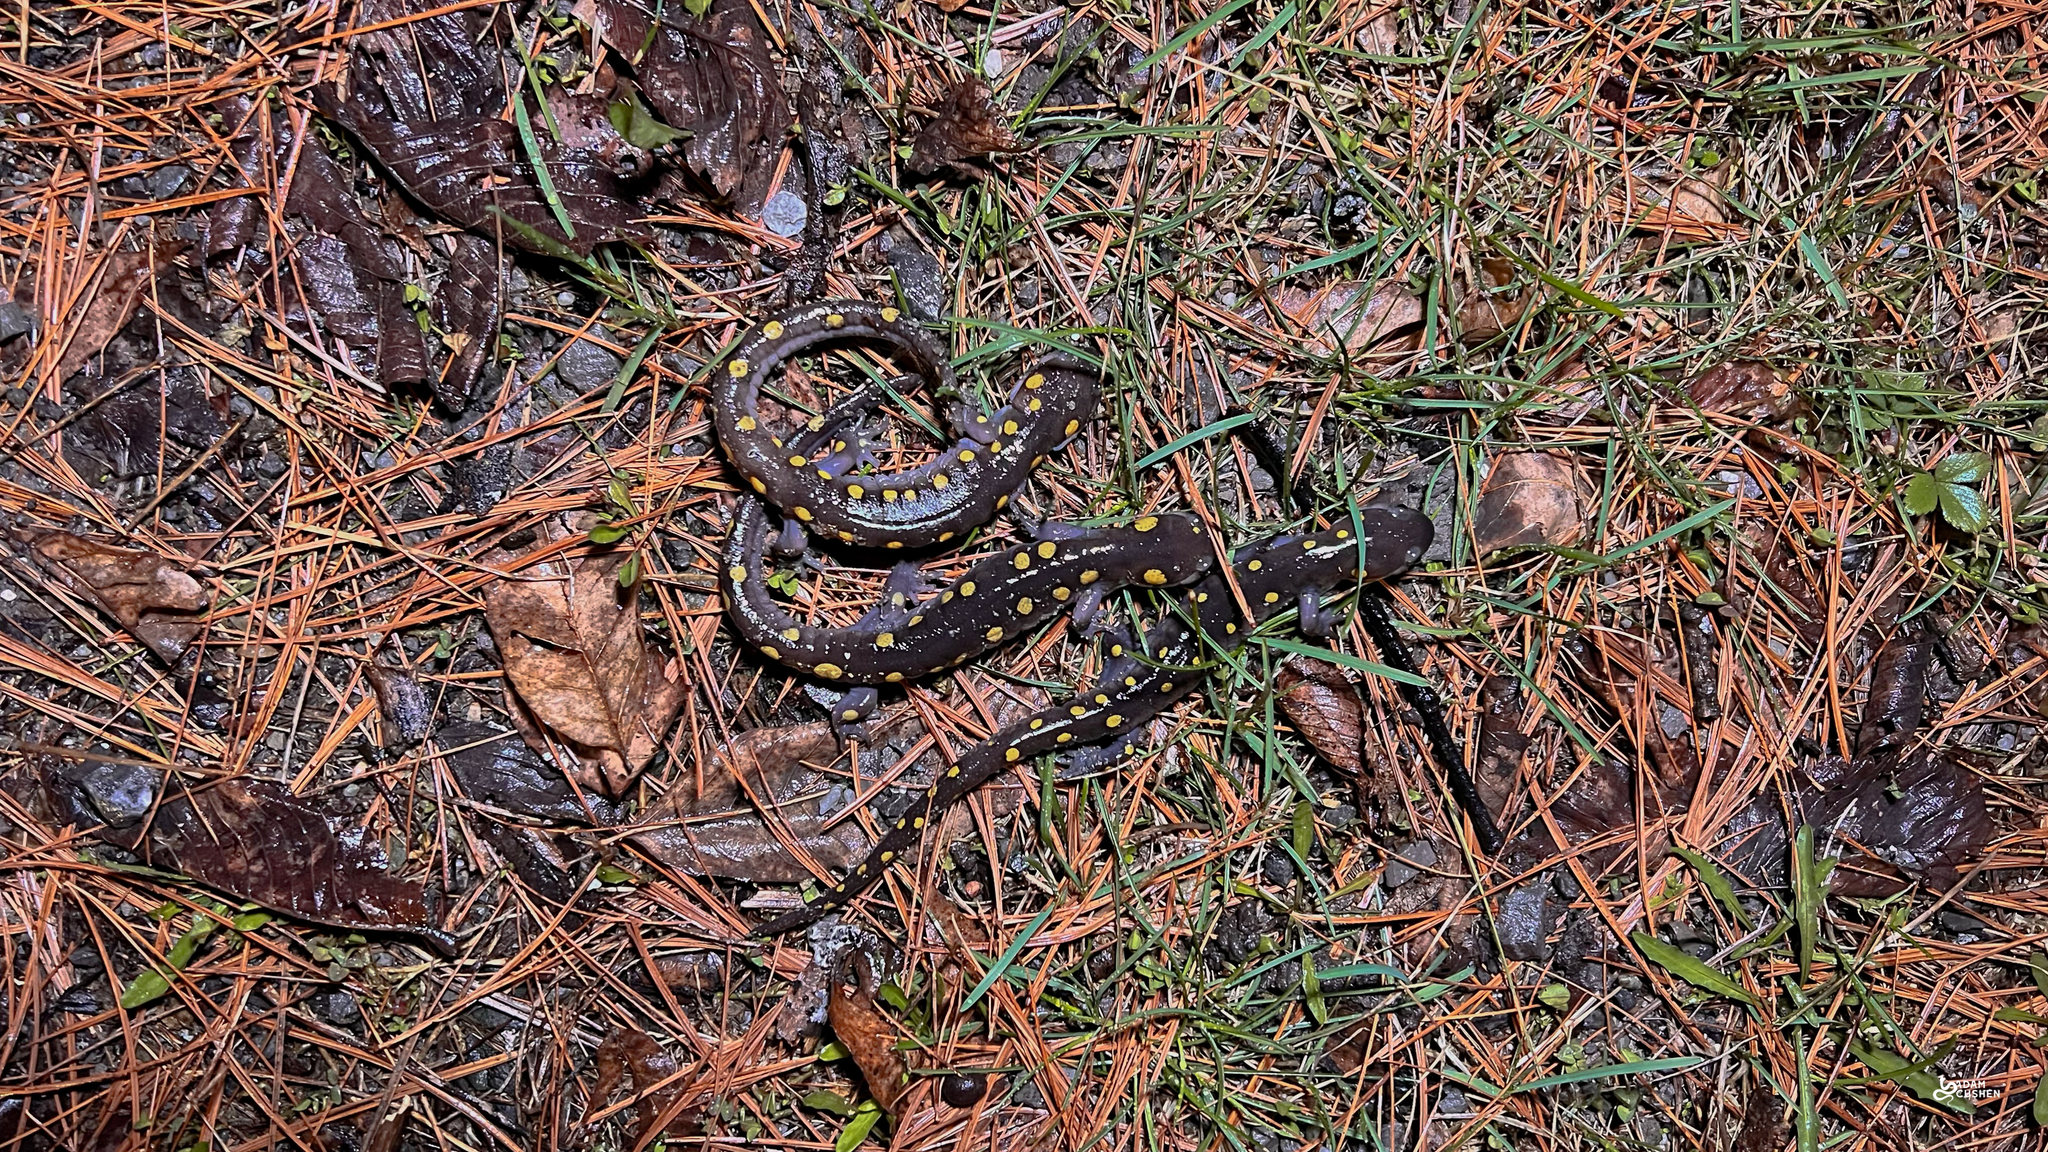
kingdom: Animalia
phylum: Chordata
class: Amphibia
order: Caudata
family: Ambystomatidae
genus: Ambystoma
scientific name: Ambystoma maculatum
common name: Spotted salamander
